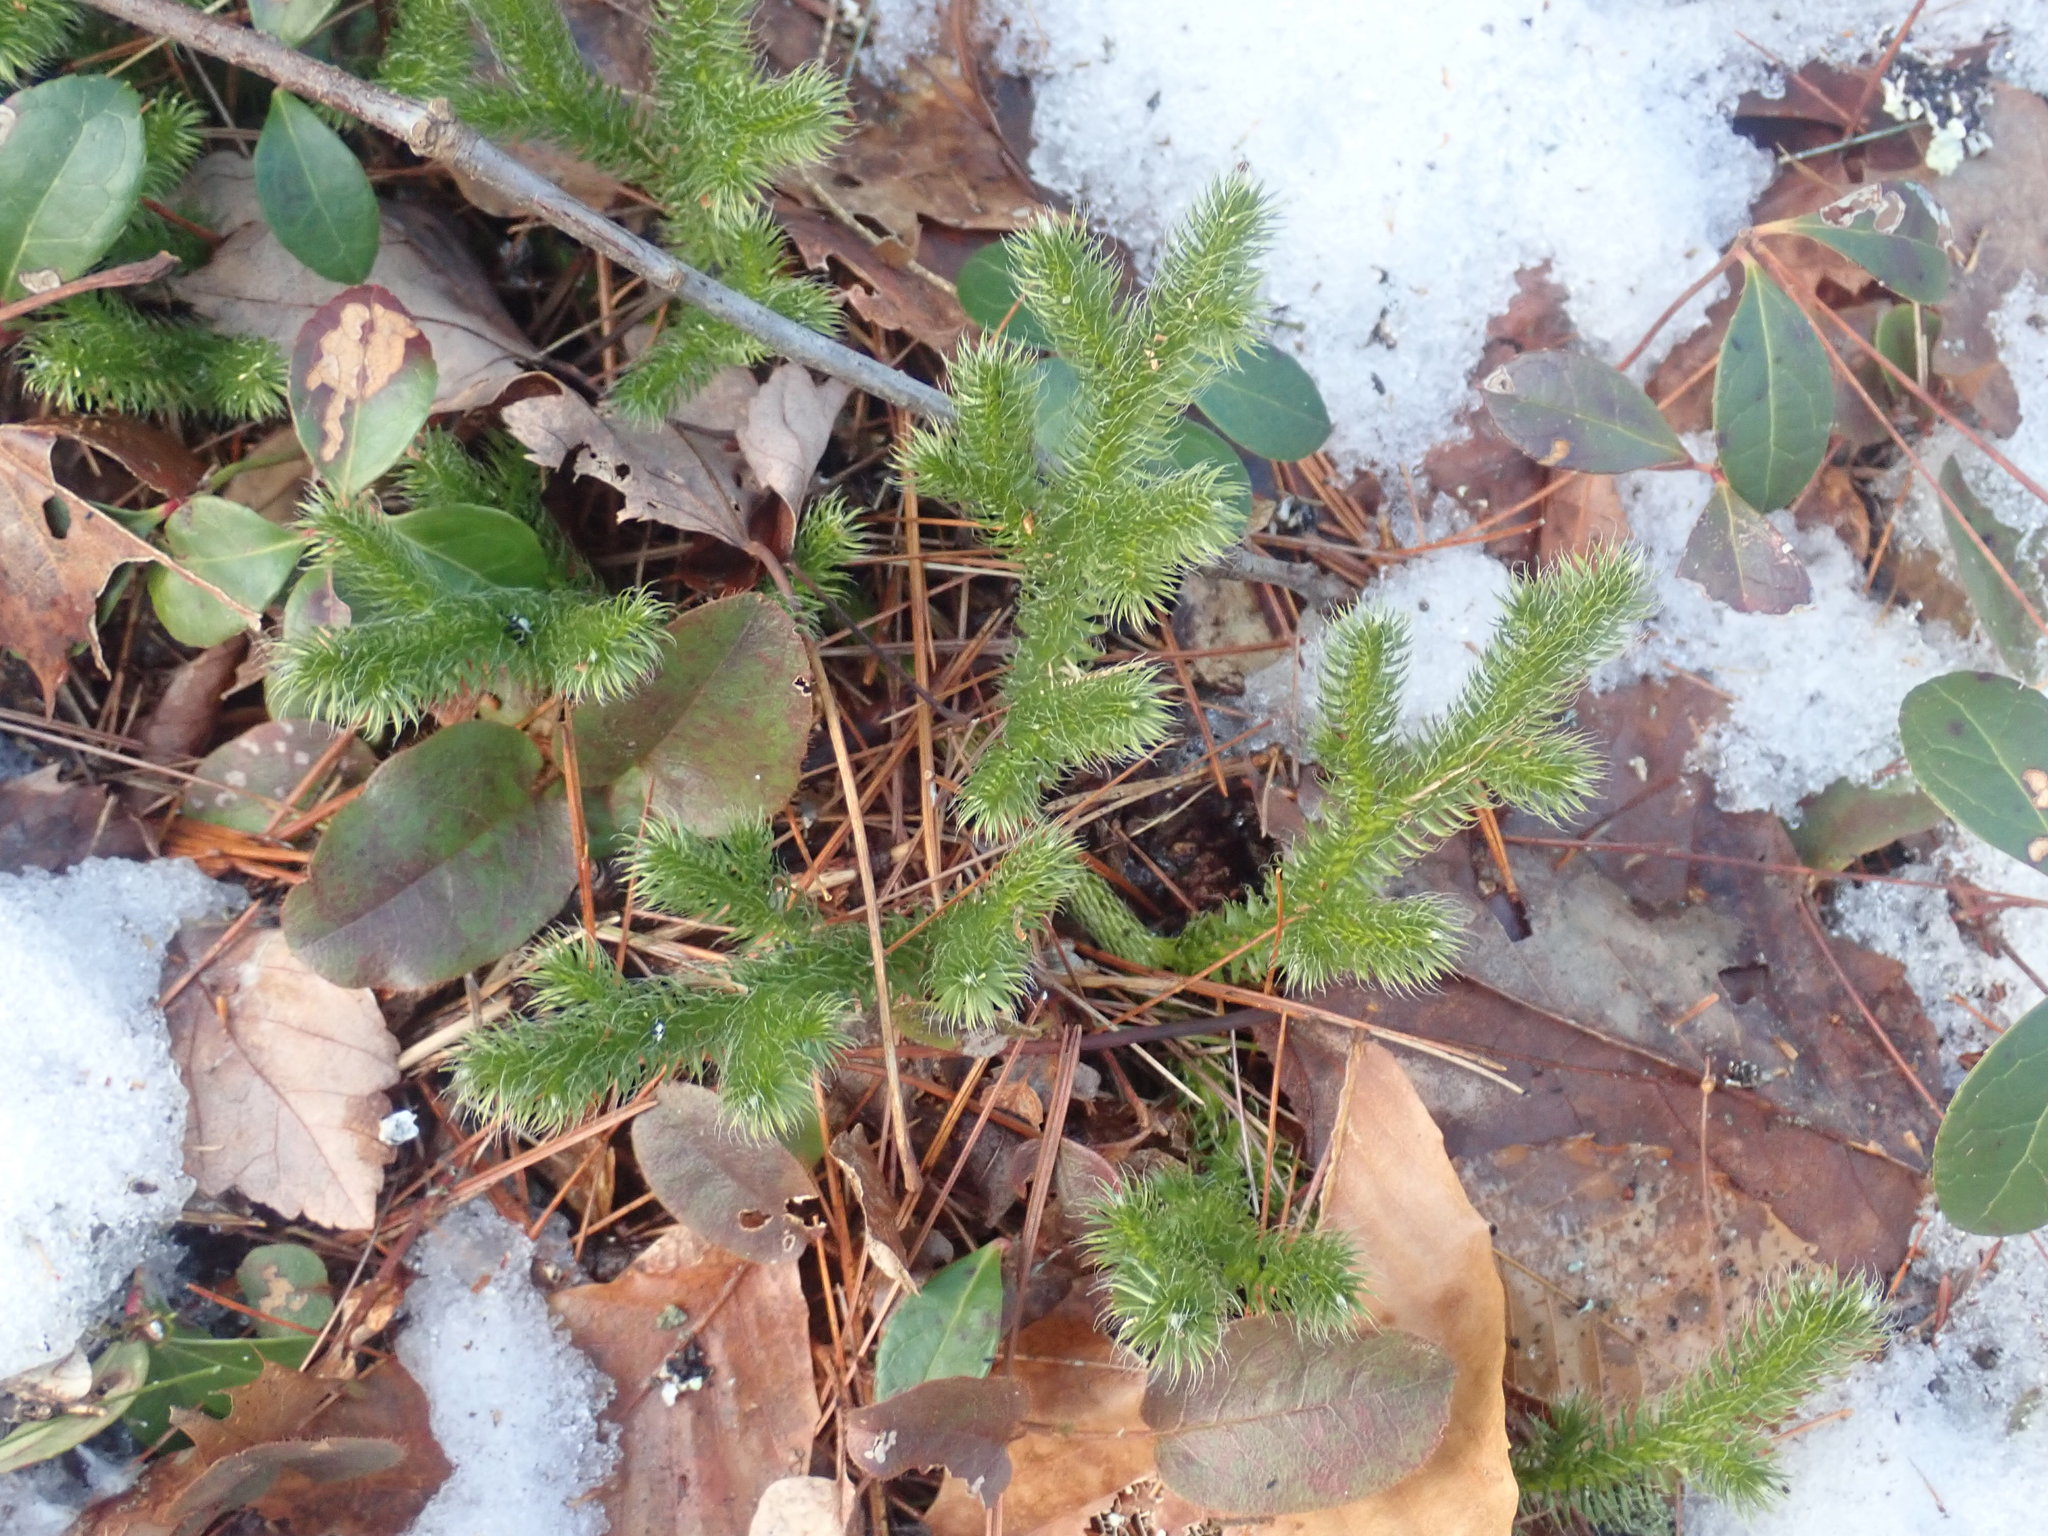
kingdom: Plantae
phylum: Tracheophyta
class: Lycopodiopsida
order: Lycopodiales
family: Lycopodiaceae
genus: Lycopodium
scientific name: Lycopodium clavatum
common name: Stag's-horn clubmoss
